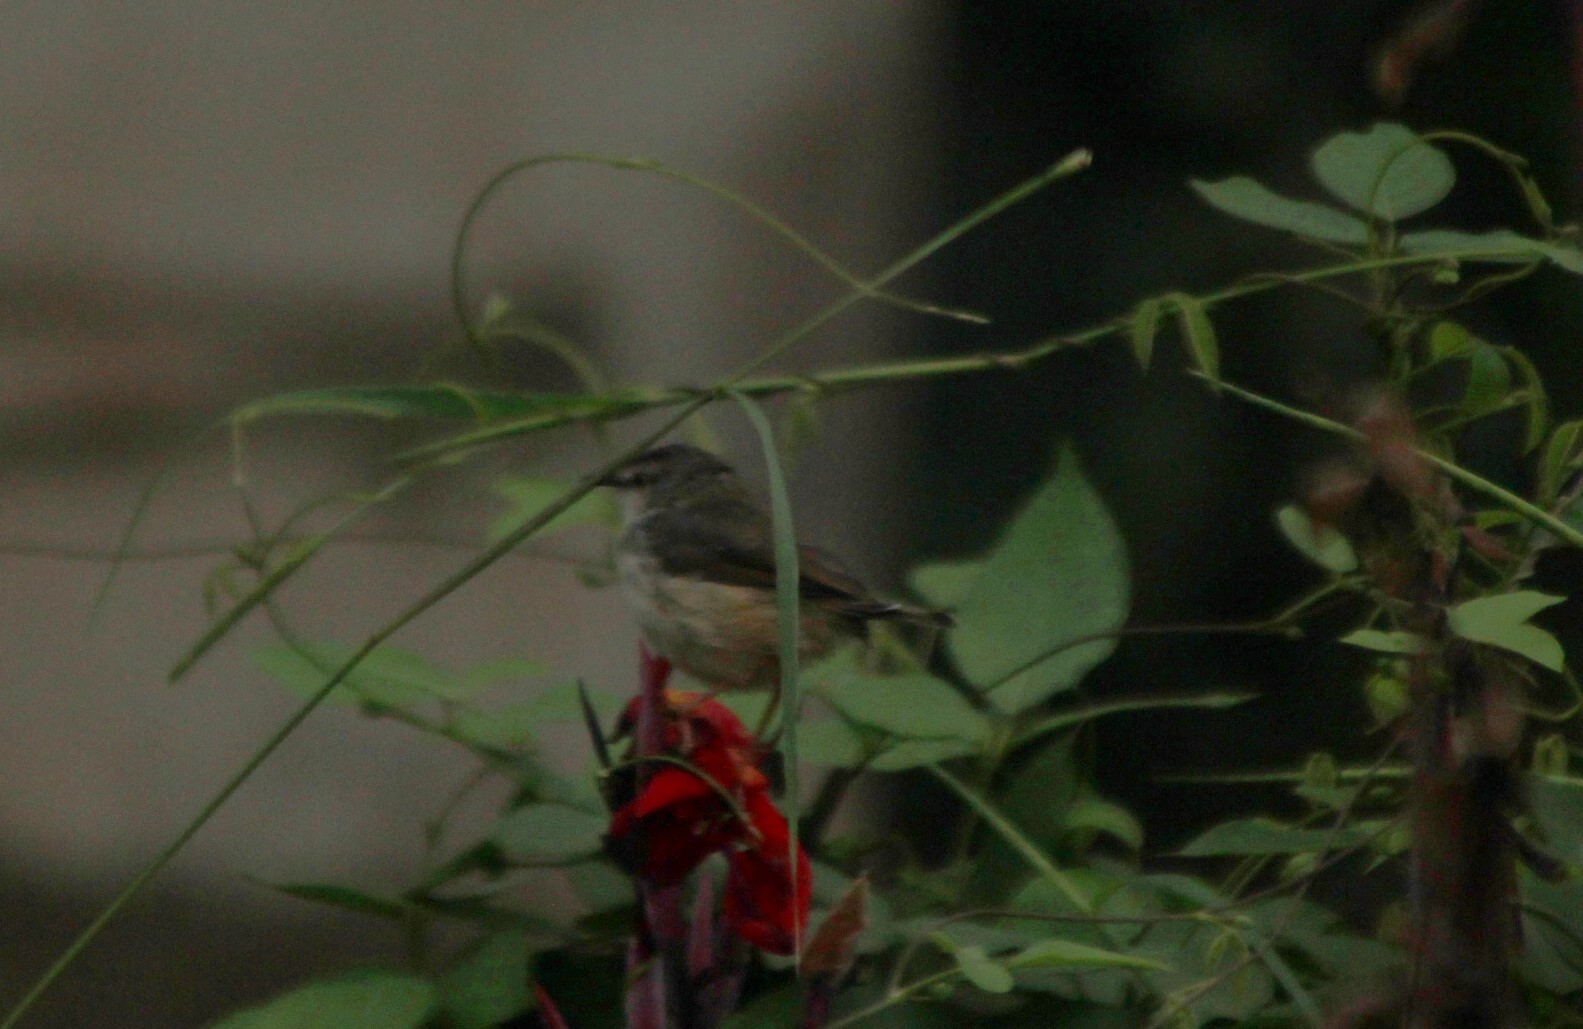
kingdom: Animalia
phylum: Chordata
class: Aves
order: Passeriformes
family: Cisticolidae
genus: Prinia
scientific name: Prinia subflava
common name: Tawny-flanked prinia
